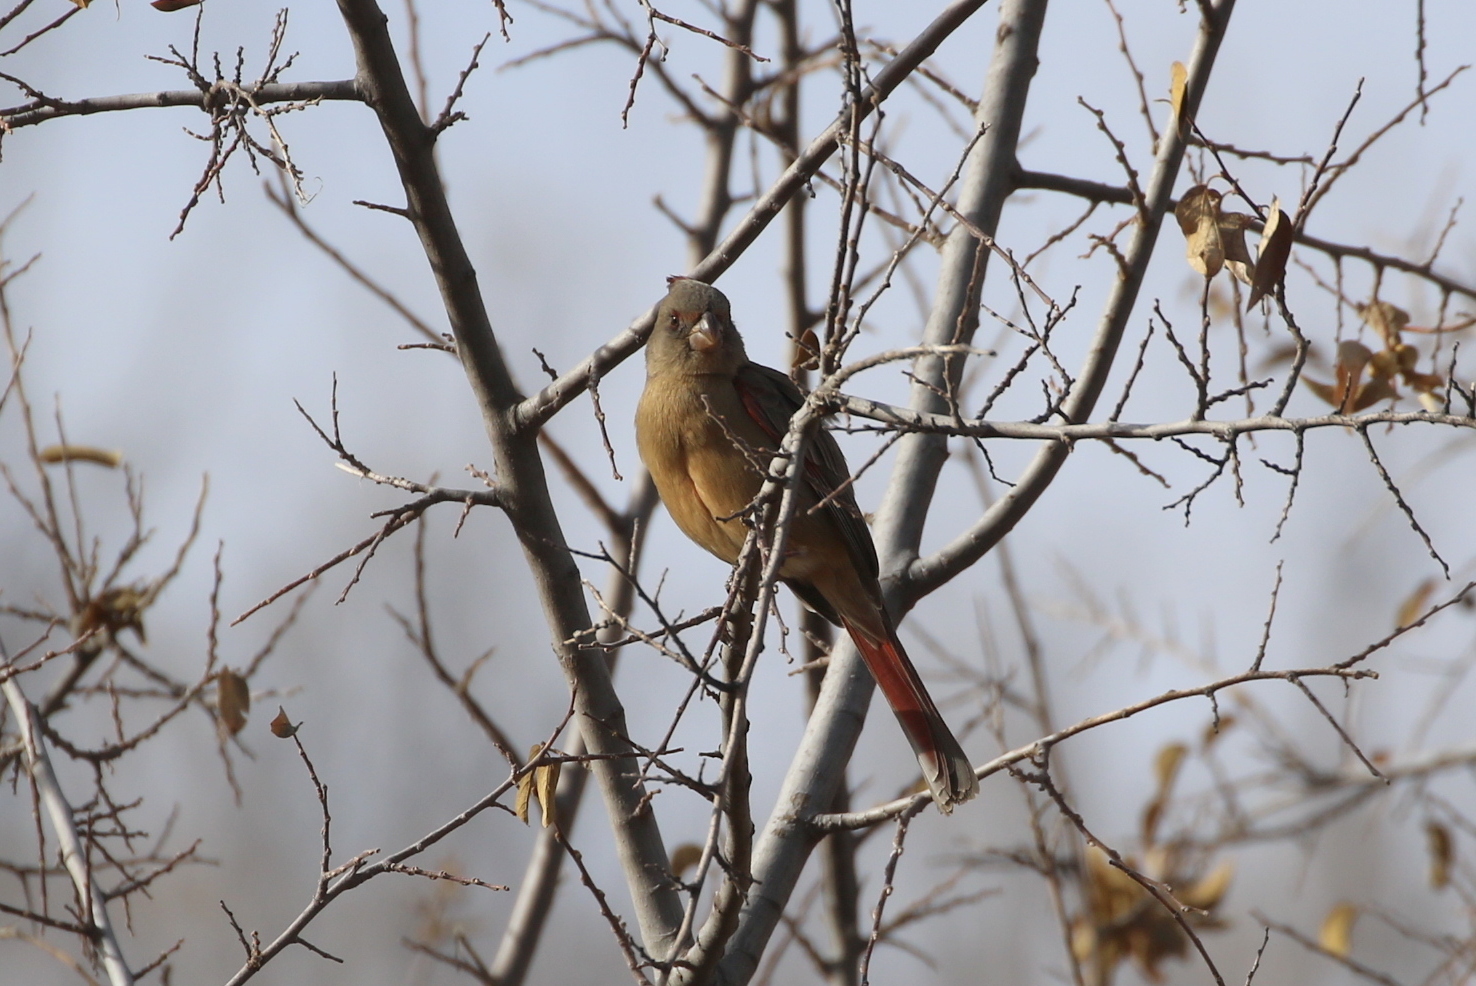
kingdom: Animalia
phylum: Chordata
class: Aves
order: Passeriformes
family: Cardinalidae
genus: Cardinalis
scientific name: Cardinalis sinuatus
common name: Pyrrhuloxia
